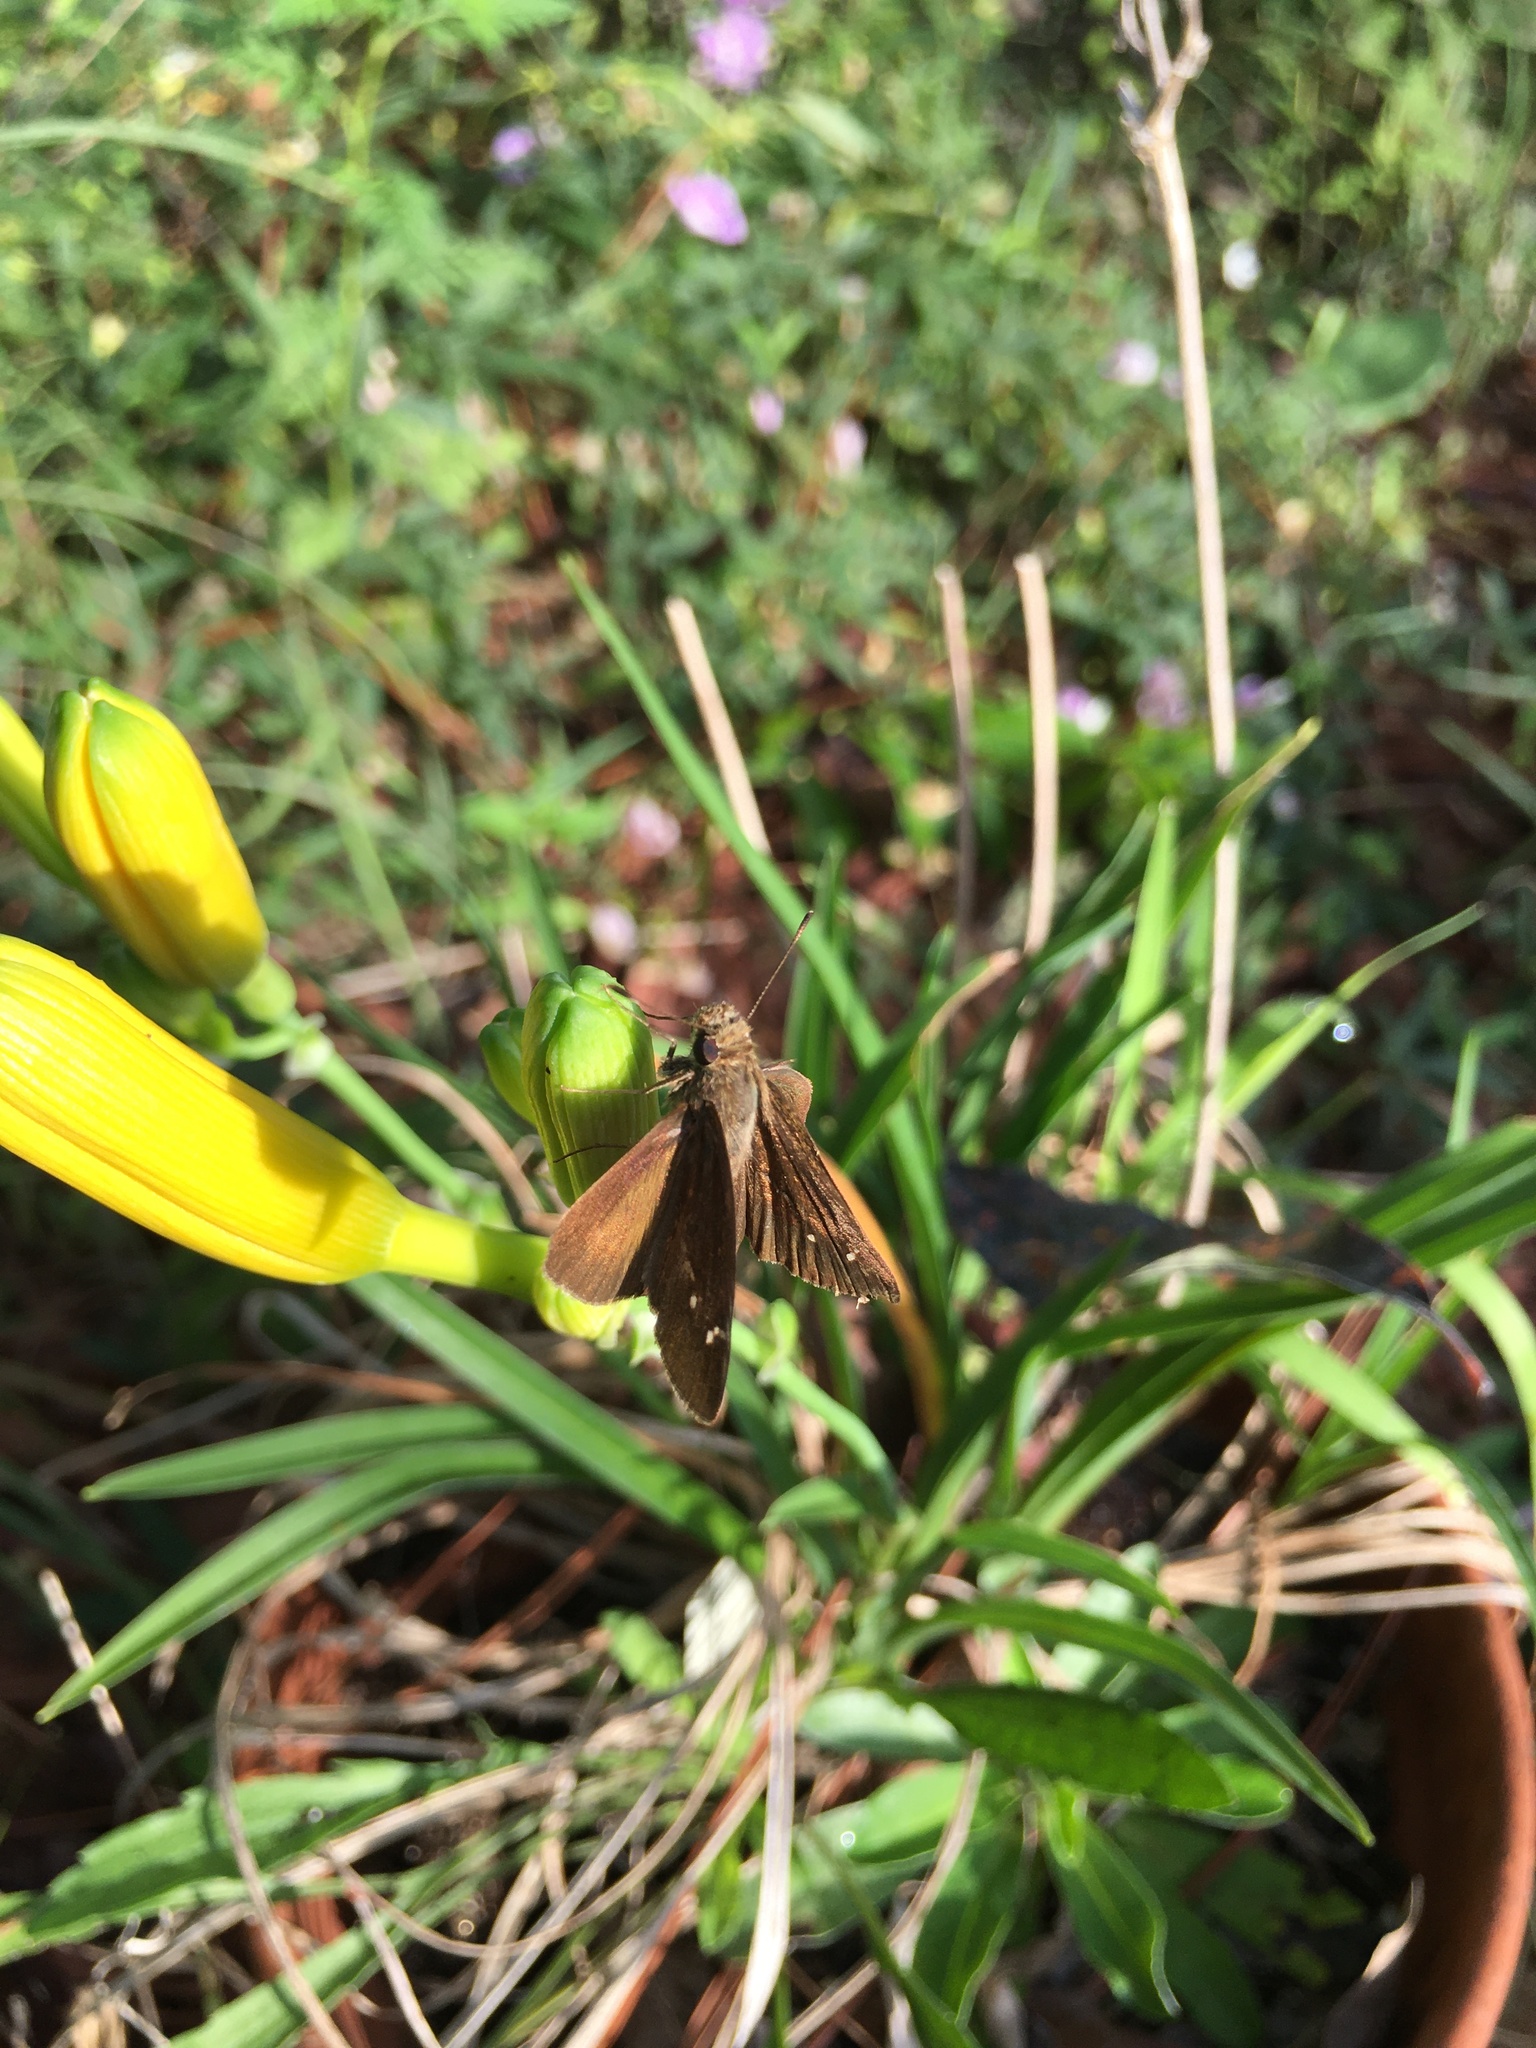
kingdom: Animalia
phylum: Arthropoda
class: Insecta
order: Lepidoptera
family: Hesperiidae
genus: Lerema
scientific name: Lerema accius
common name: Clouded skipper
